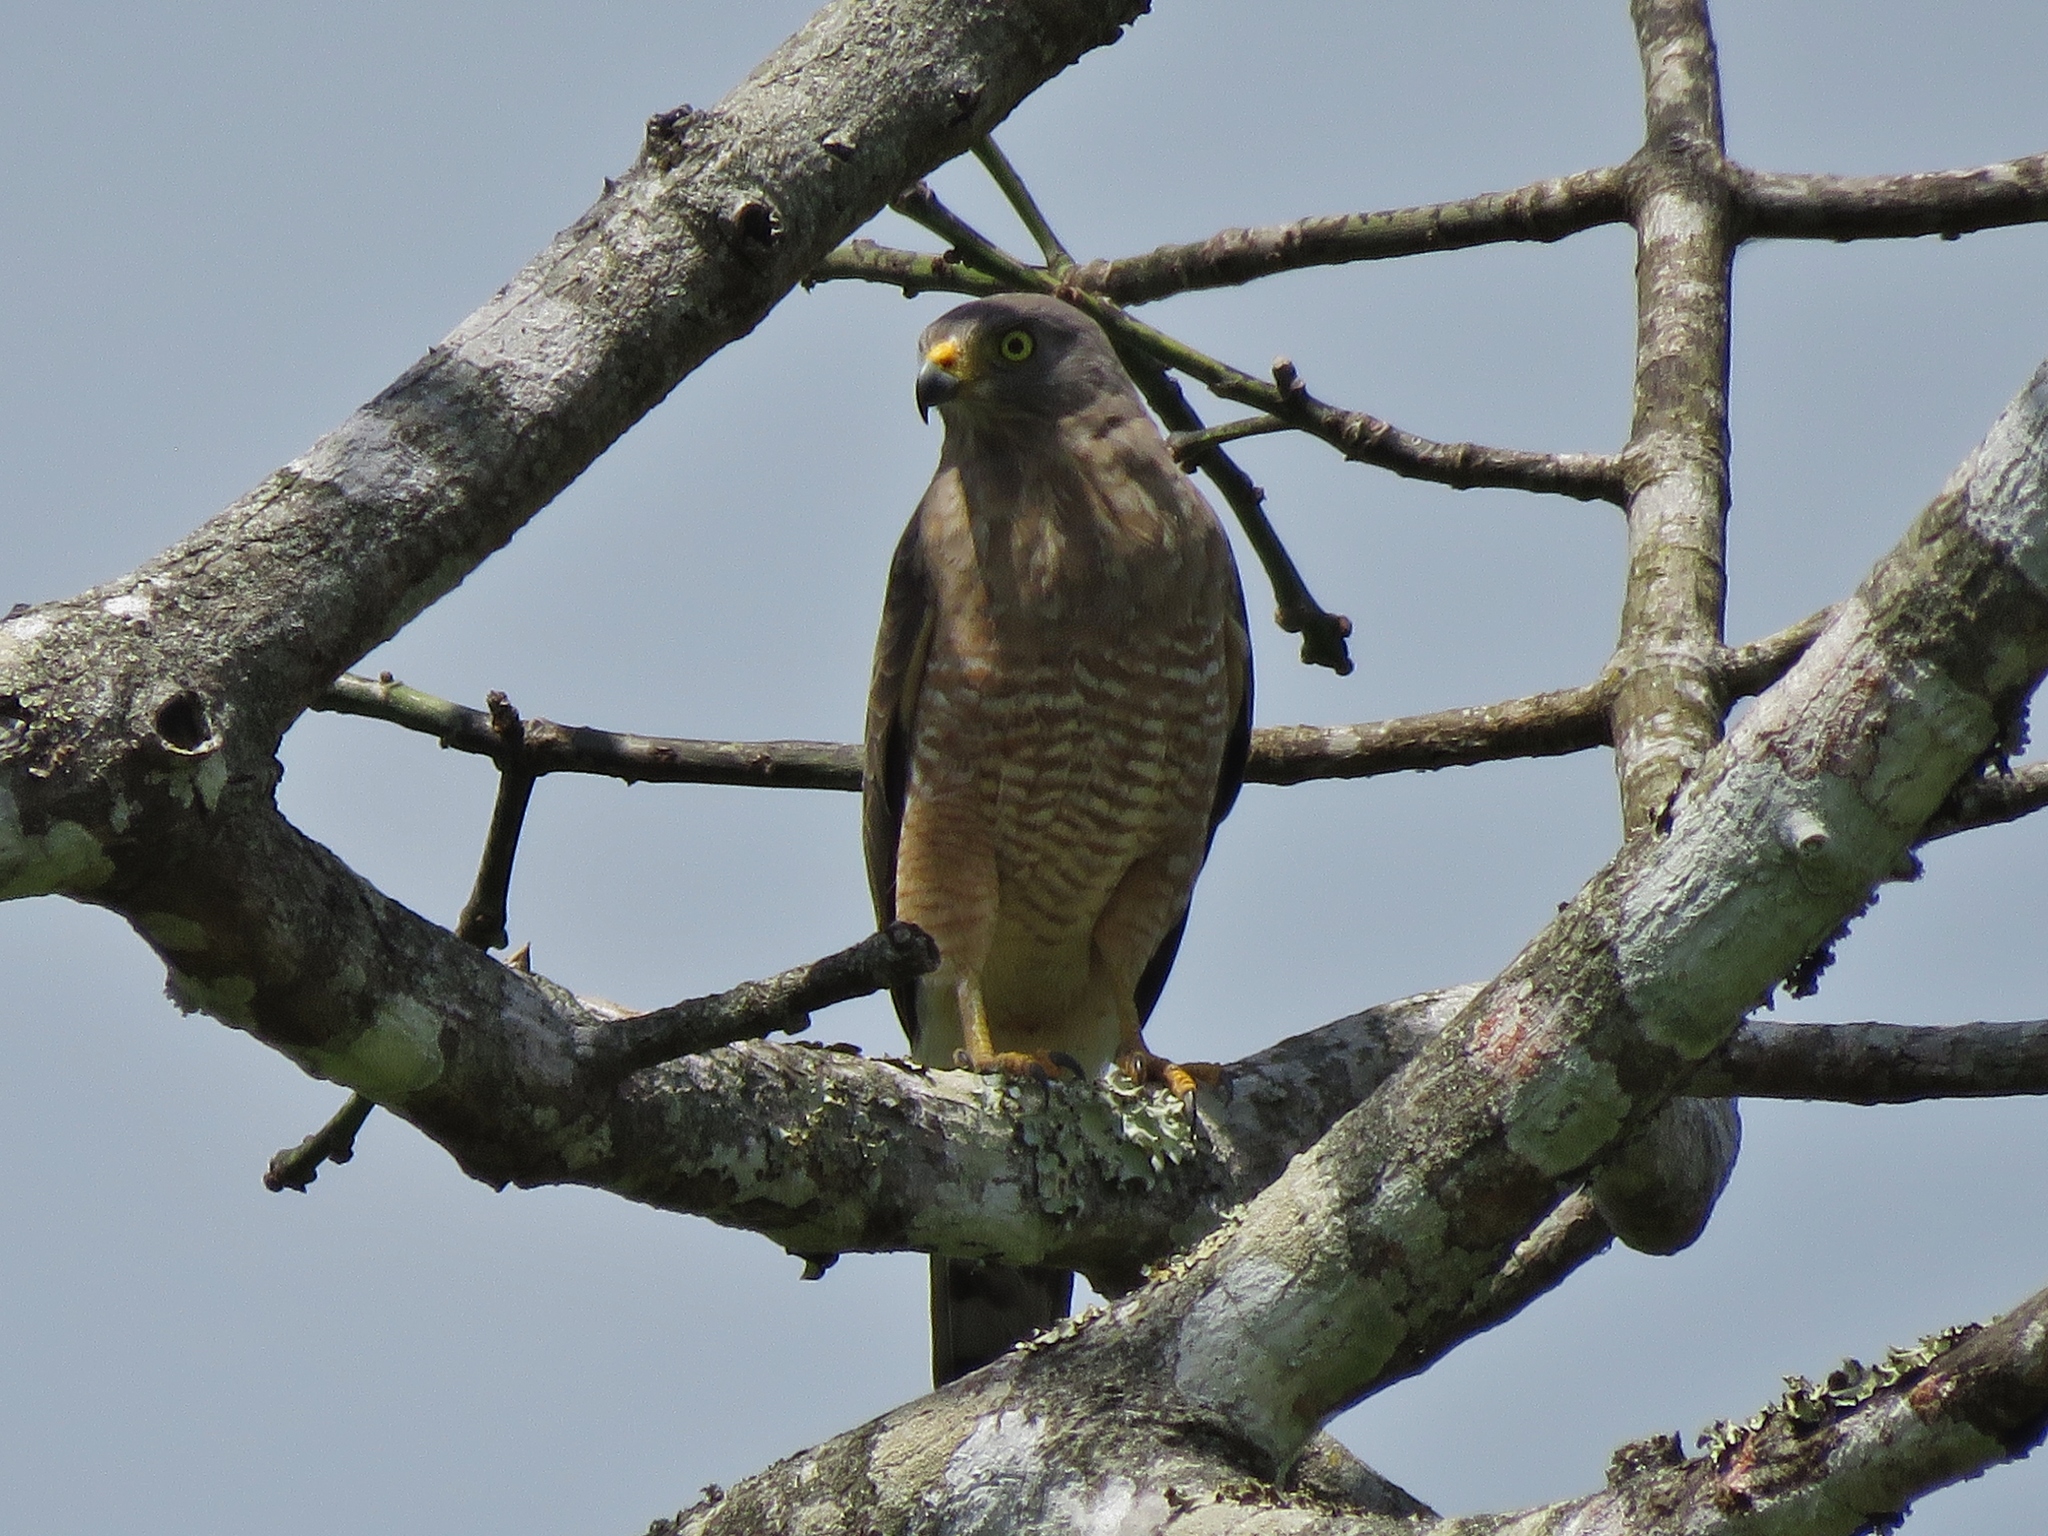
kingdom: Animalia
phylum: Chordata
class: Aves
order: Accipitriformes
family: Accipitridae
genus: Rupornis
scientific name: Rupornis magnirostris
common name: Roadside hawk
